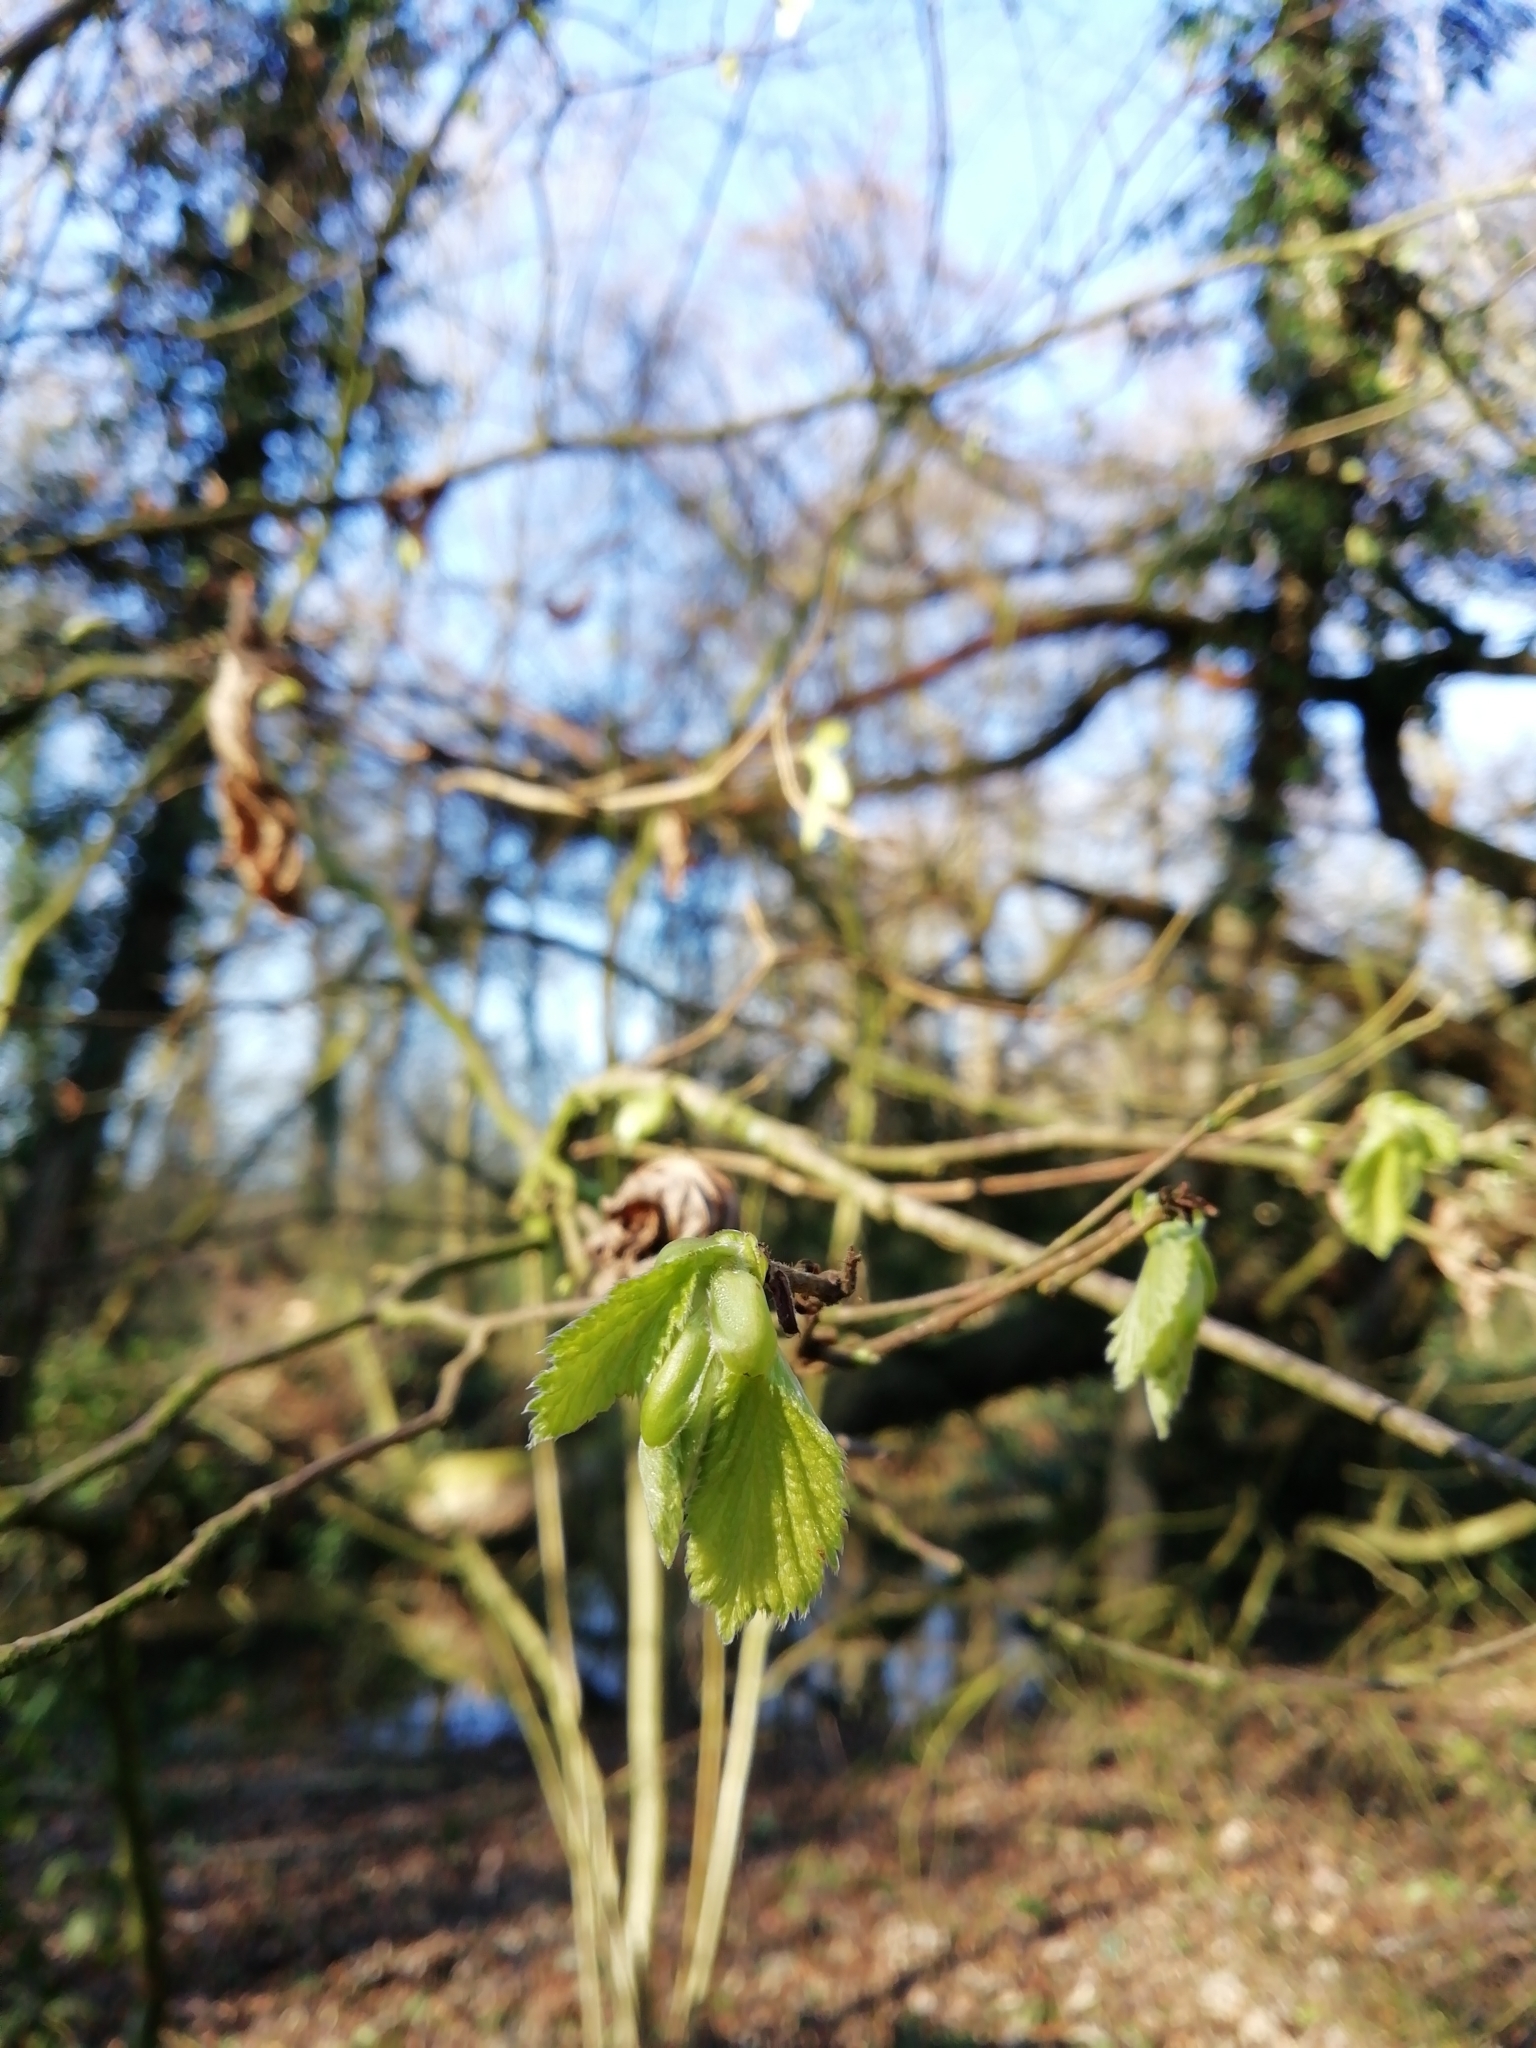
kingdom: Plantae
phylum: Tracheophyta
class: Magnoliopsida
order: Fagales
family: Betulaceae
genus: Corylus
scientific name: Corylus avellana
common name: European hazel
